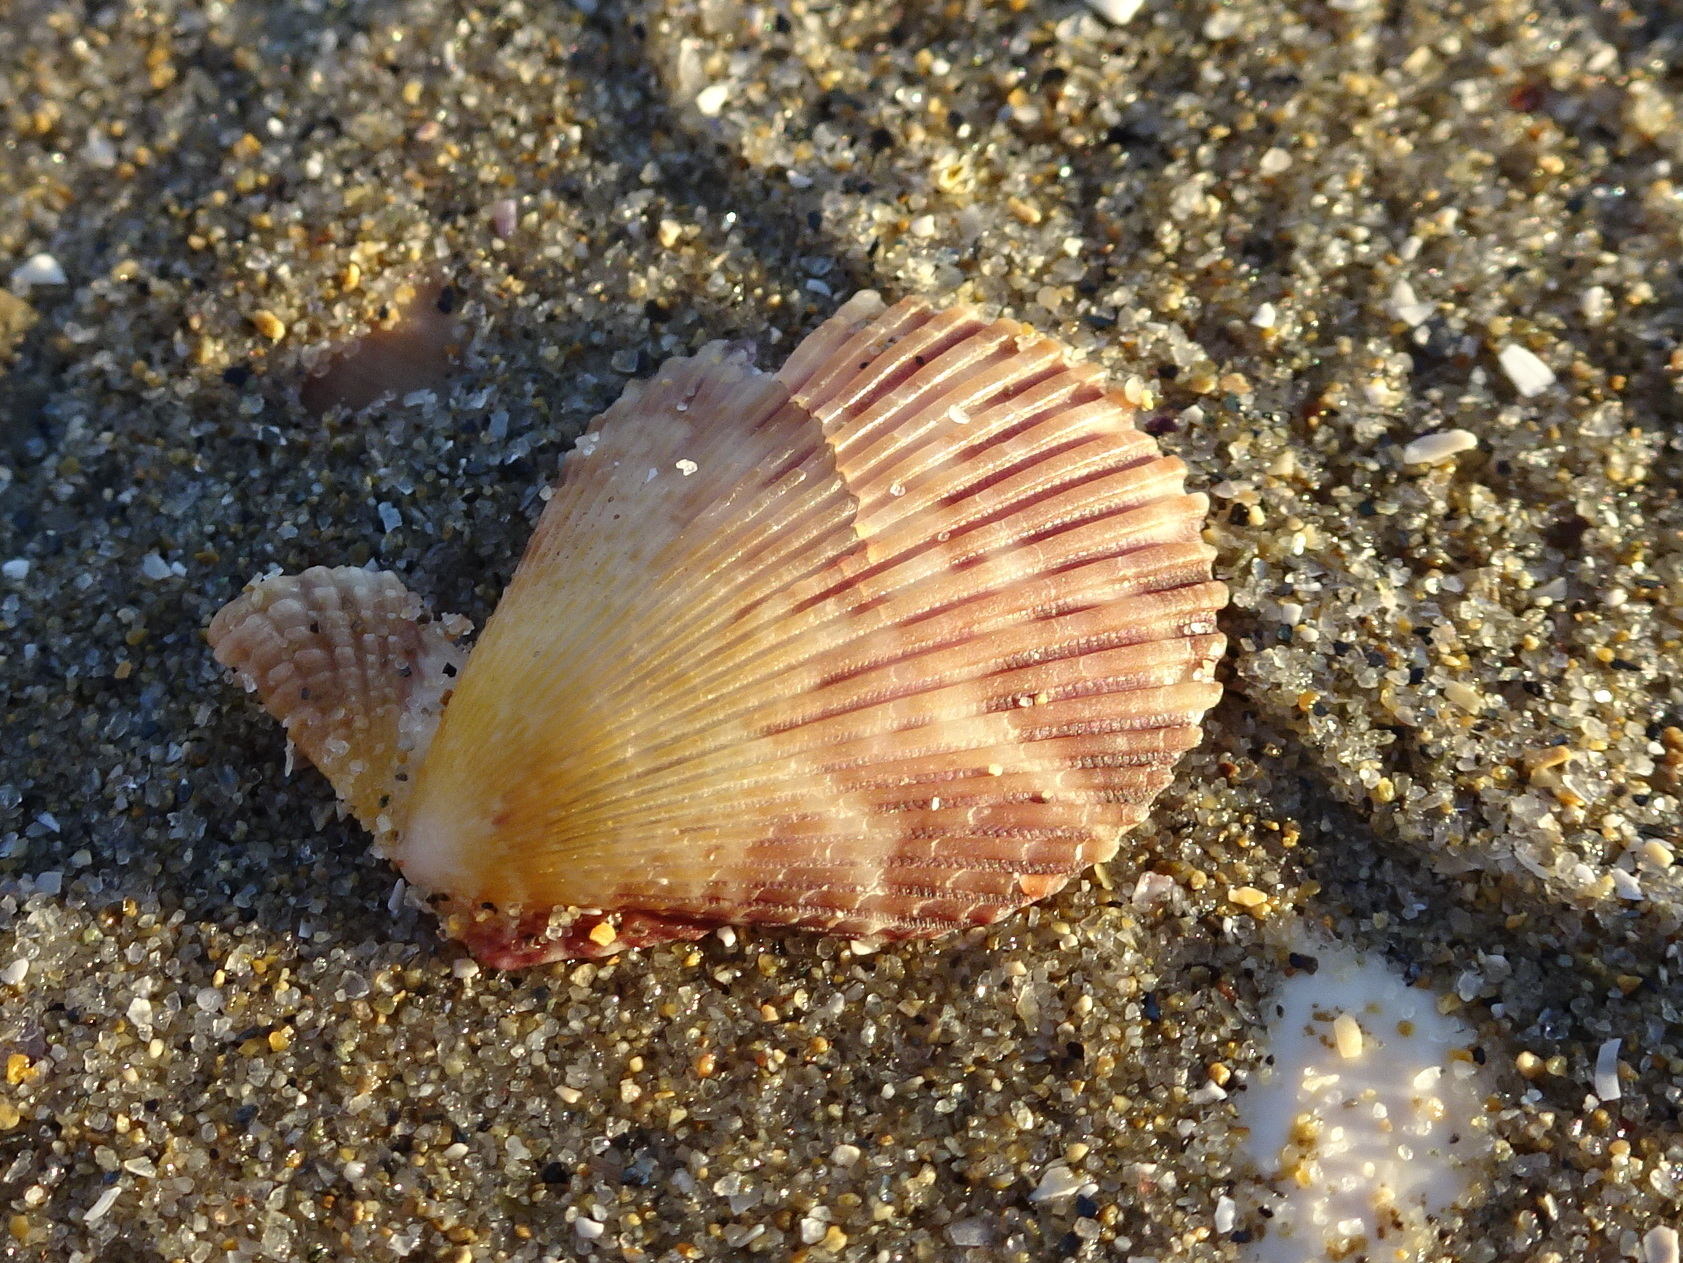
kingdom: Animalia
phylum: Mollusca
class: Bivalvia
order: Pectinida
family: Pectinidae
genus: Mimachlamys
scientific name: Mimachlamys varia
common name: Variegated scallop
